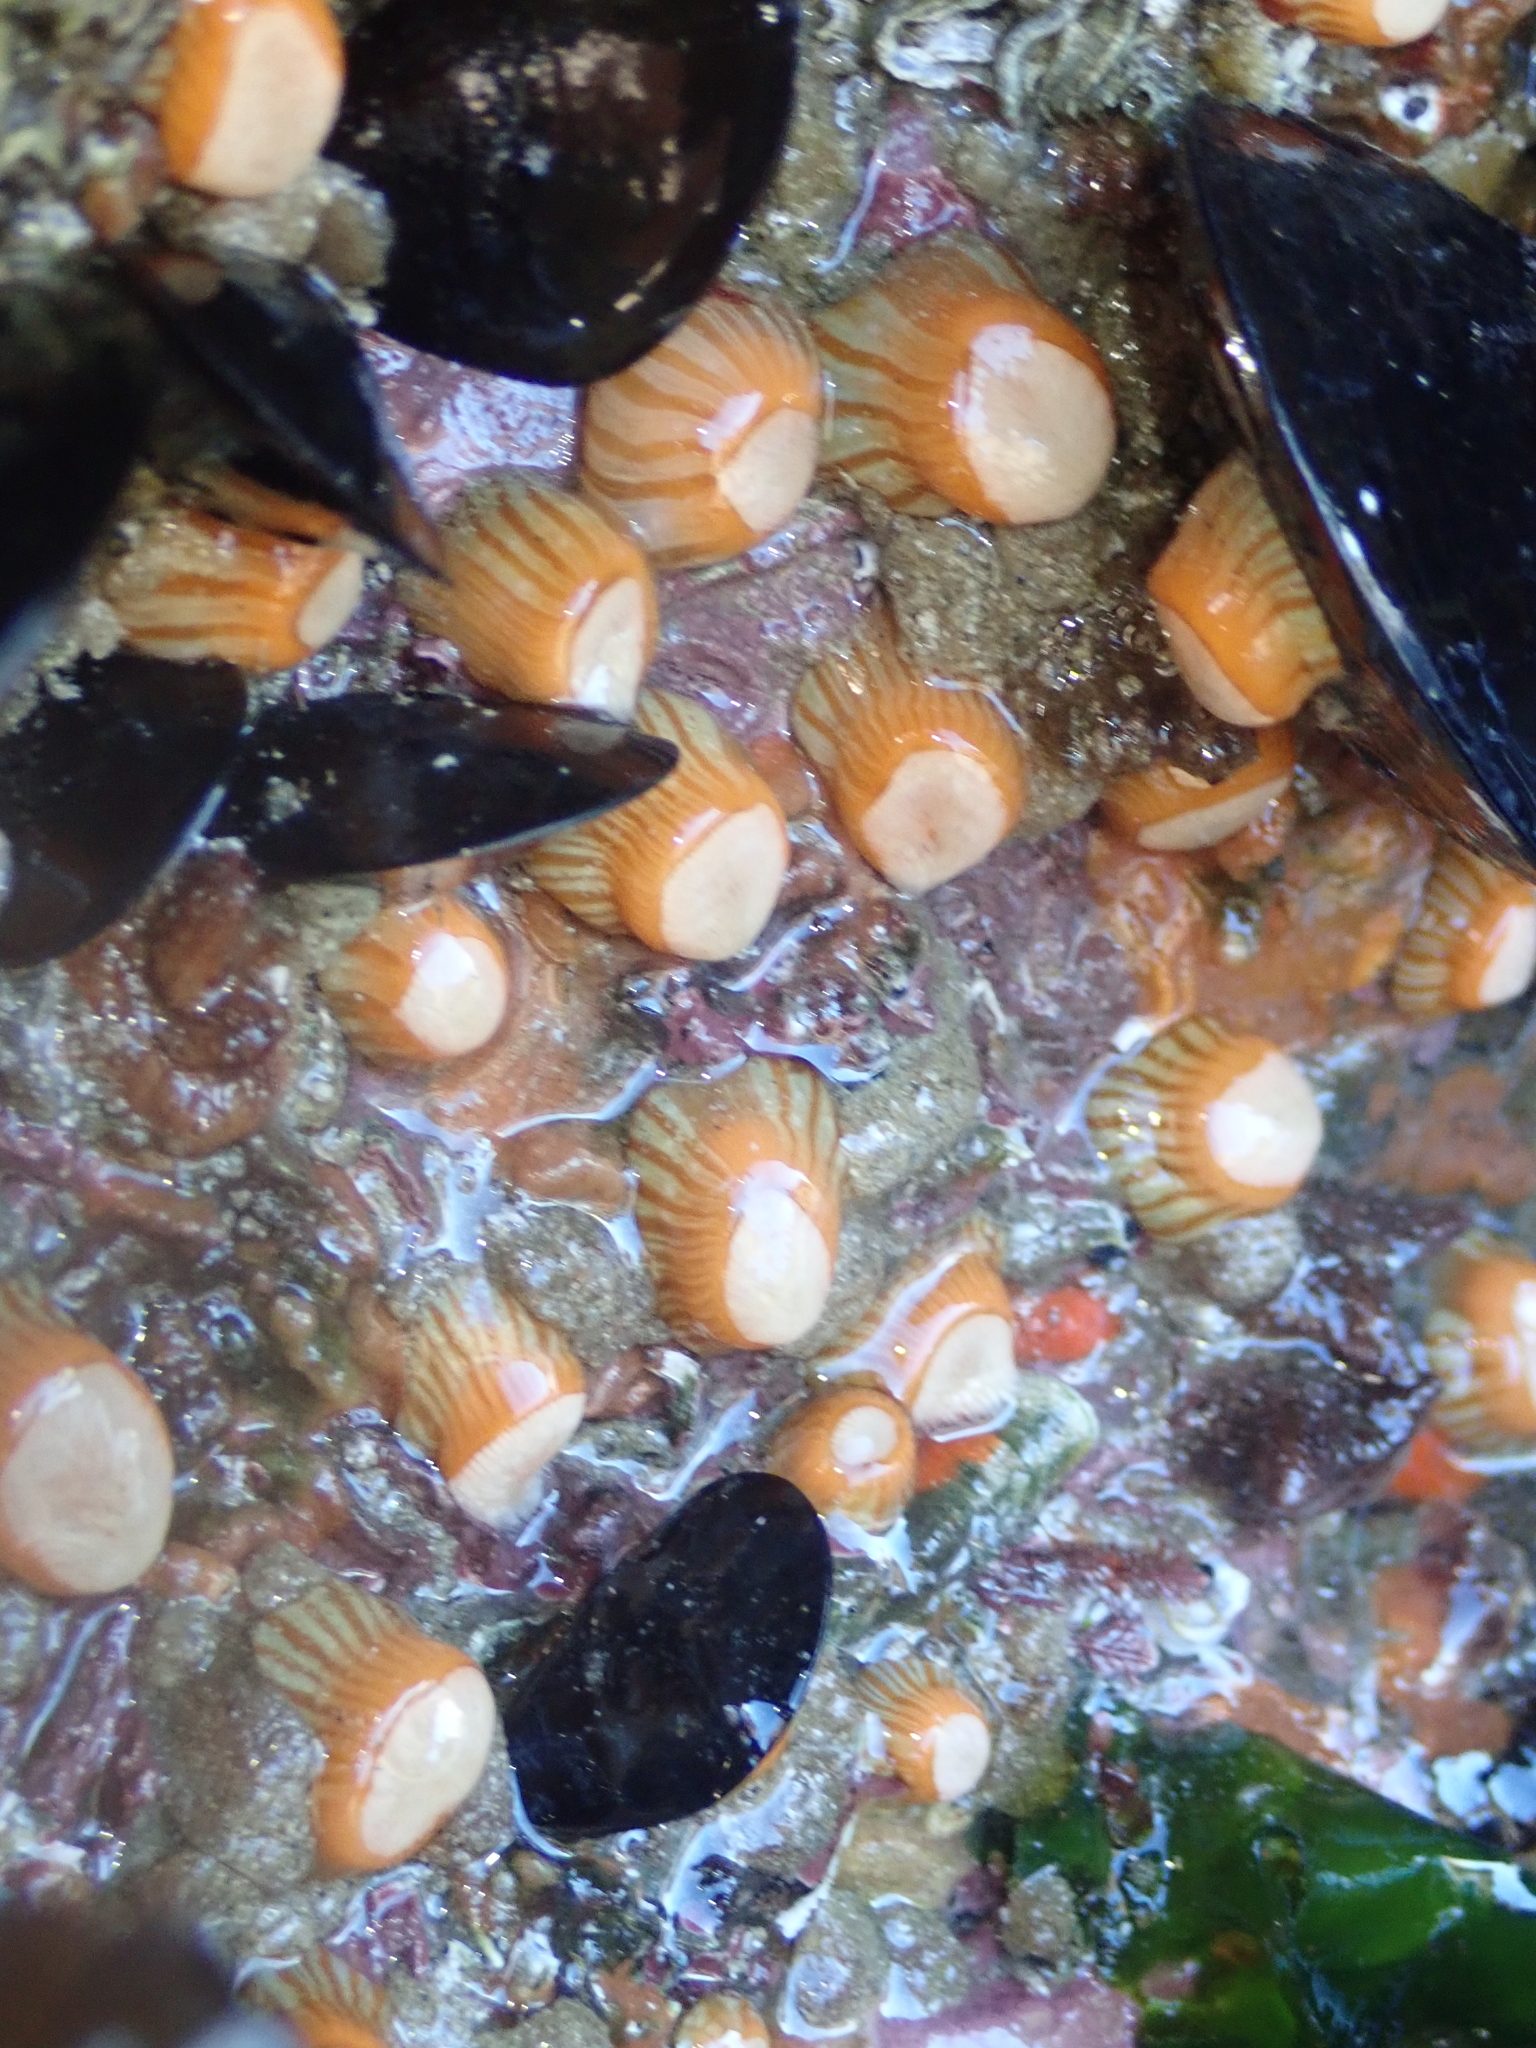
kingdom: Animalia
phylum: Cnidaria
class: Anthozoa
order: Actiniaria
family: Sagartiidae
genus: Anthothoe
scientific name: Anthothoe albocincta
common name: Orange striped anemone
